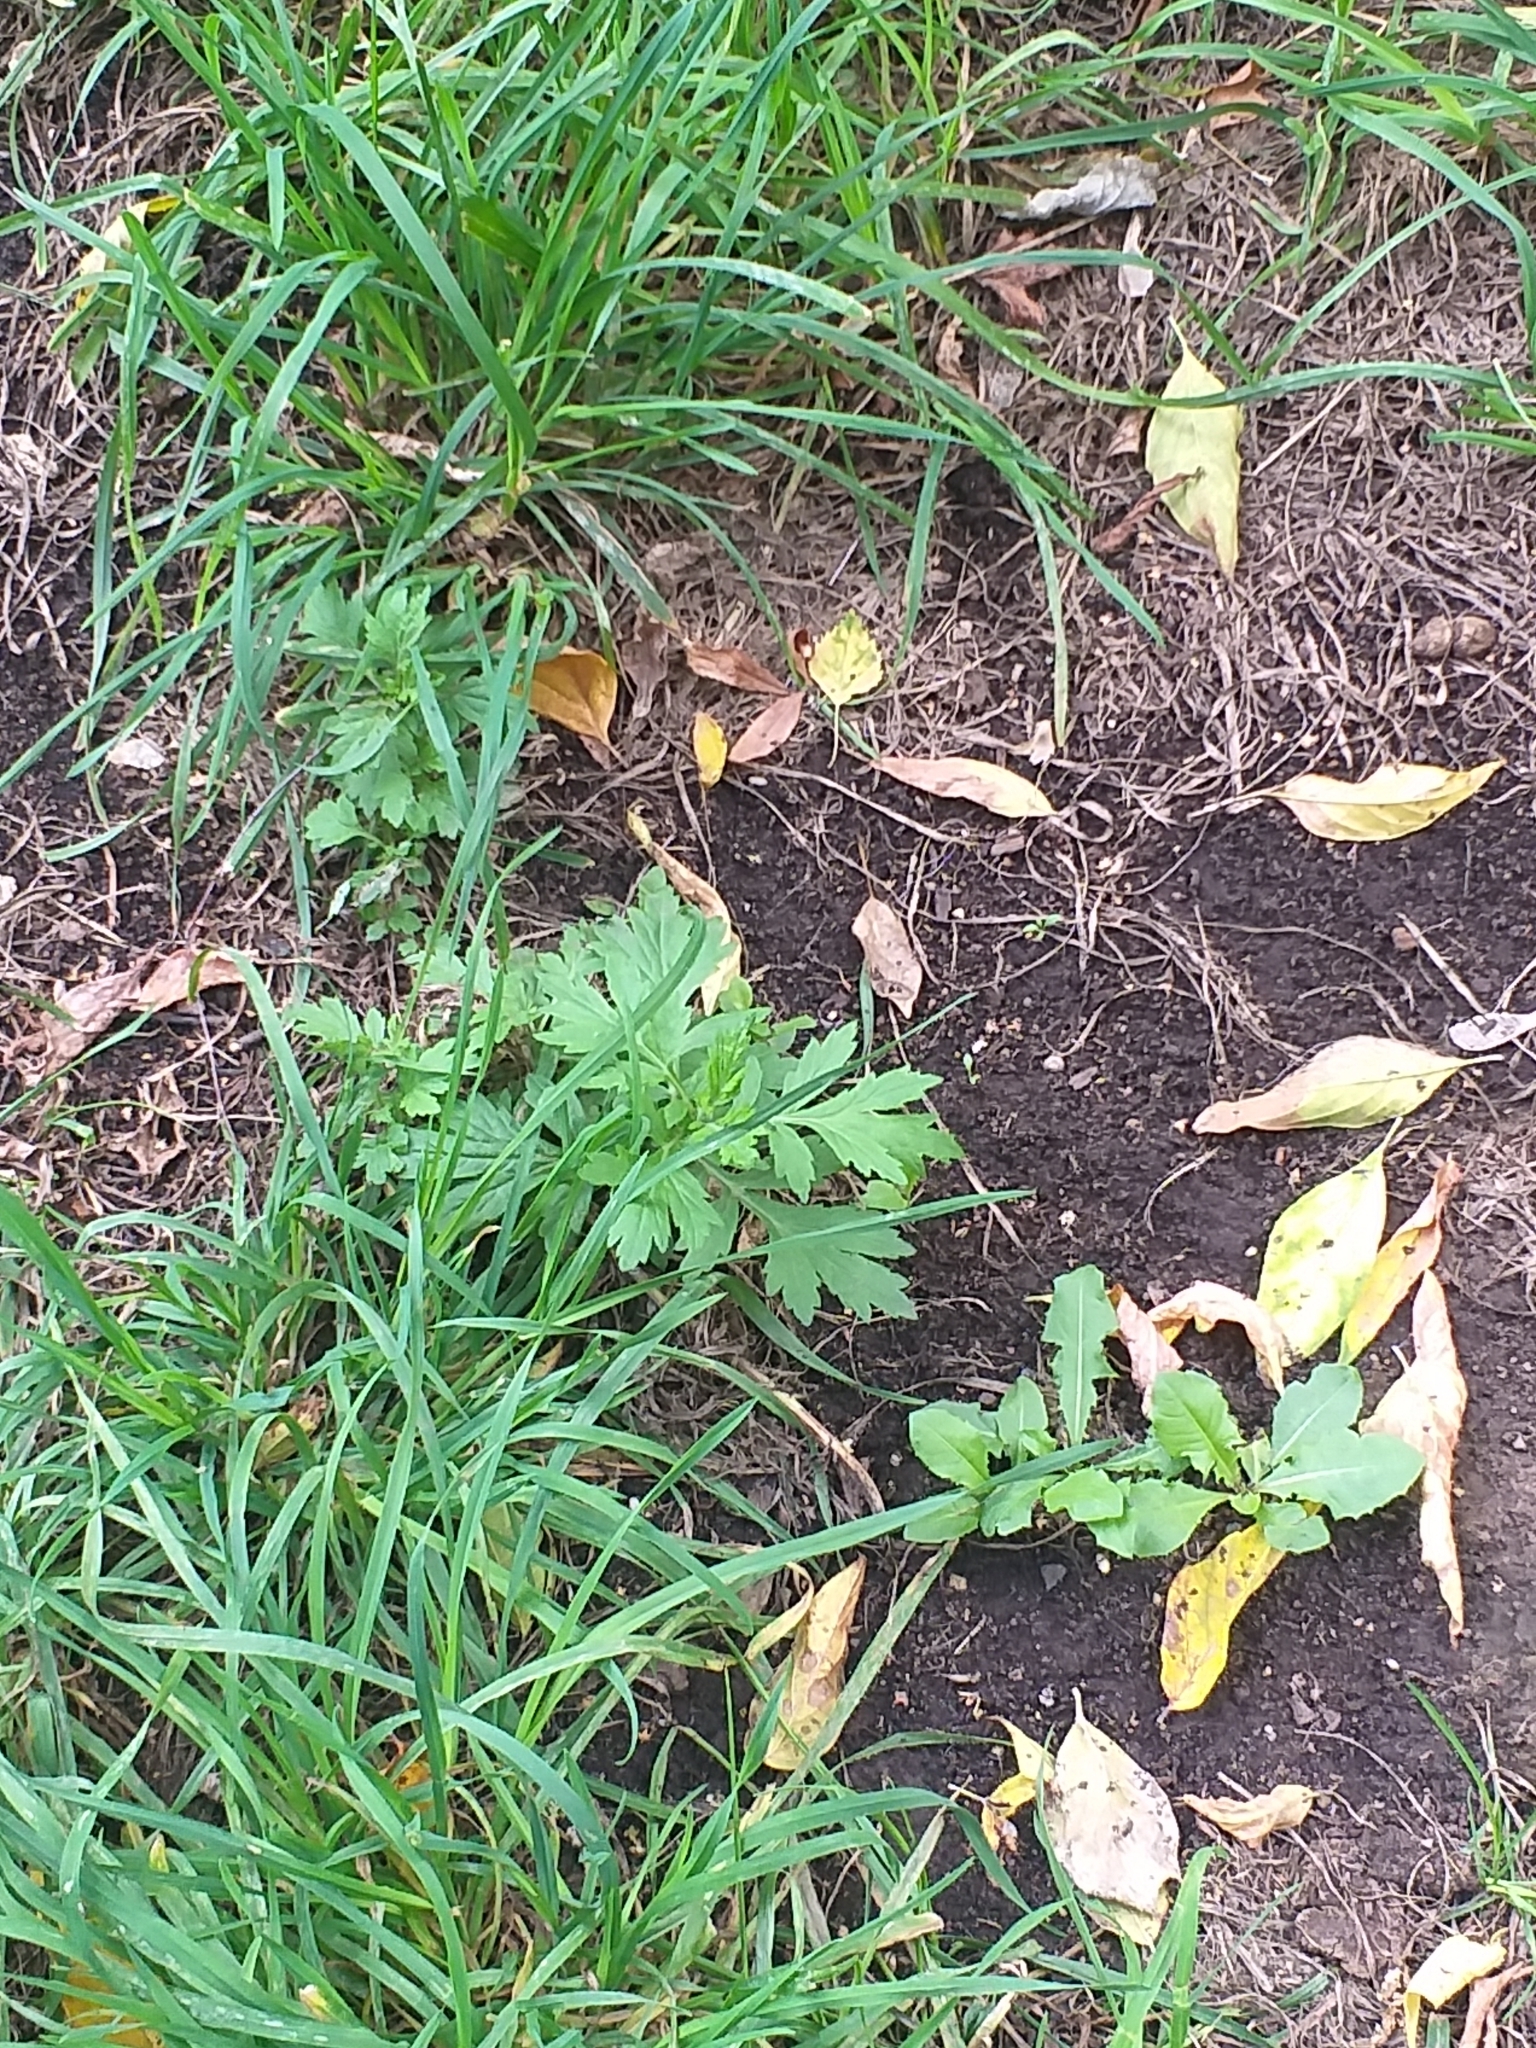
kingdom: Plantae
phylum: Tracheophyta
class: Magnoliopsida
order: Asterales
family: Asteraceae
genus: Artemisia
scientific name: Artemisia vulgaris
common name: Mugwort
